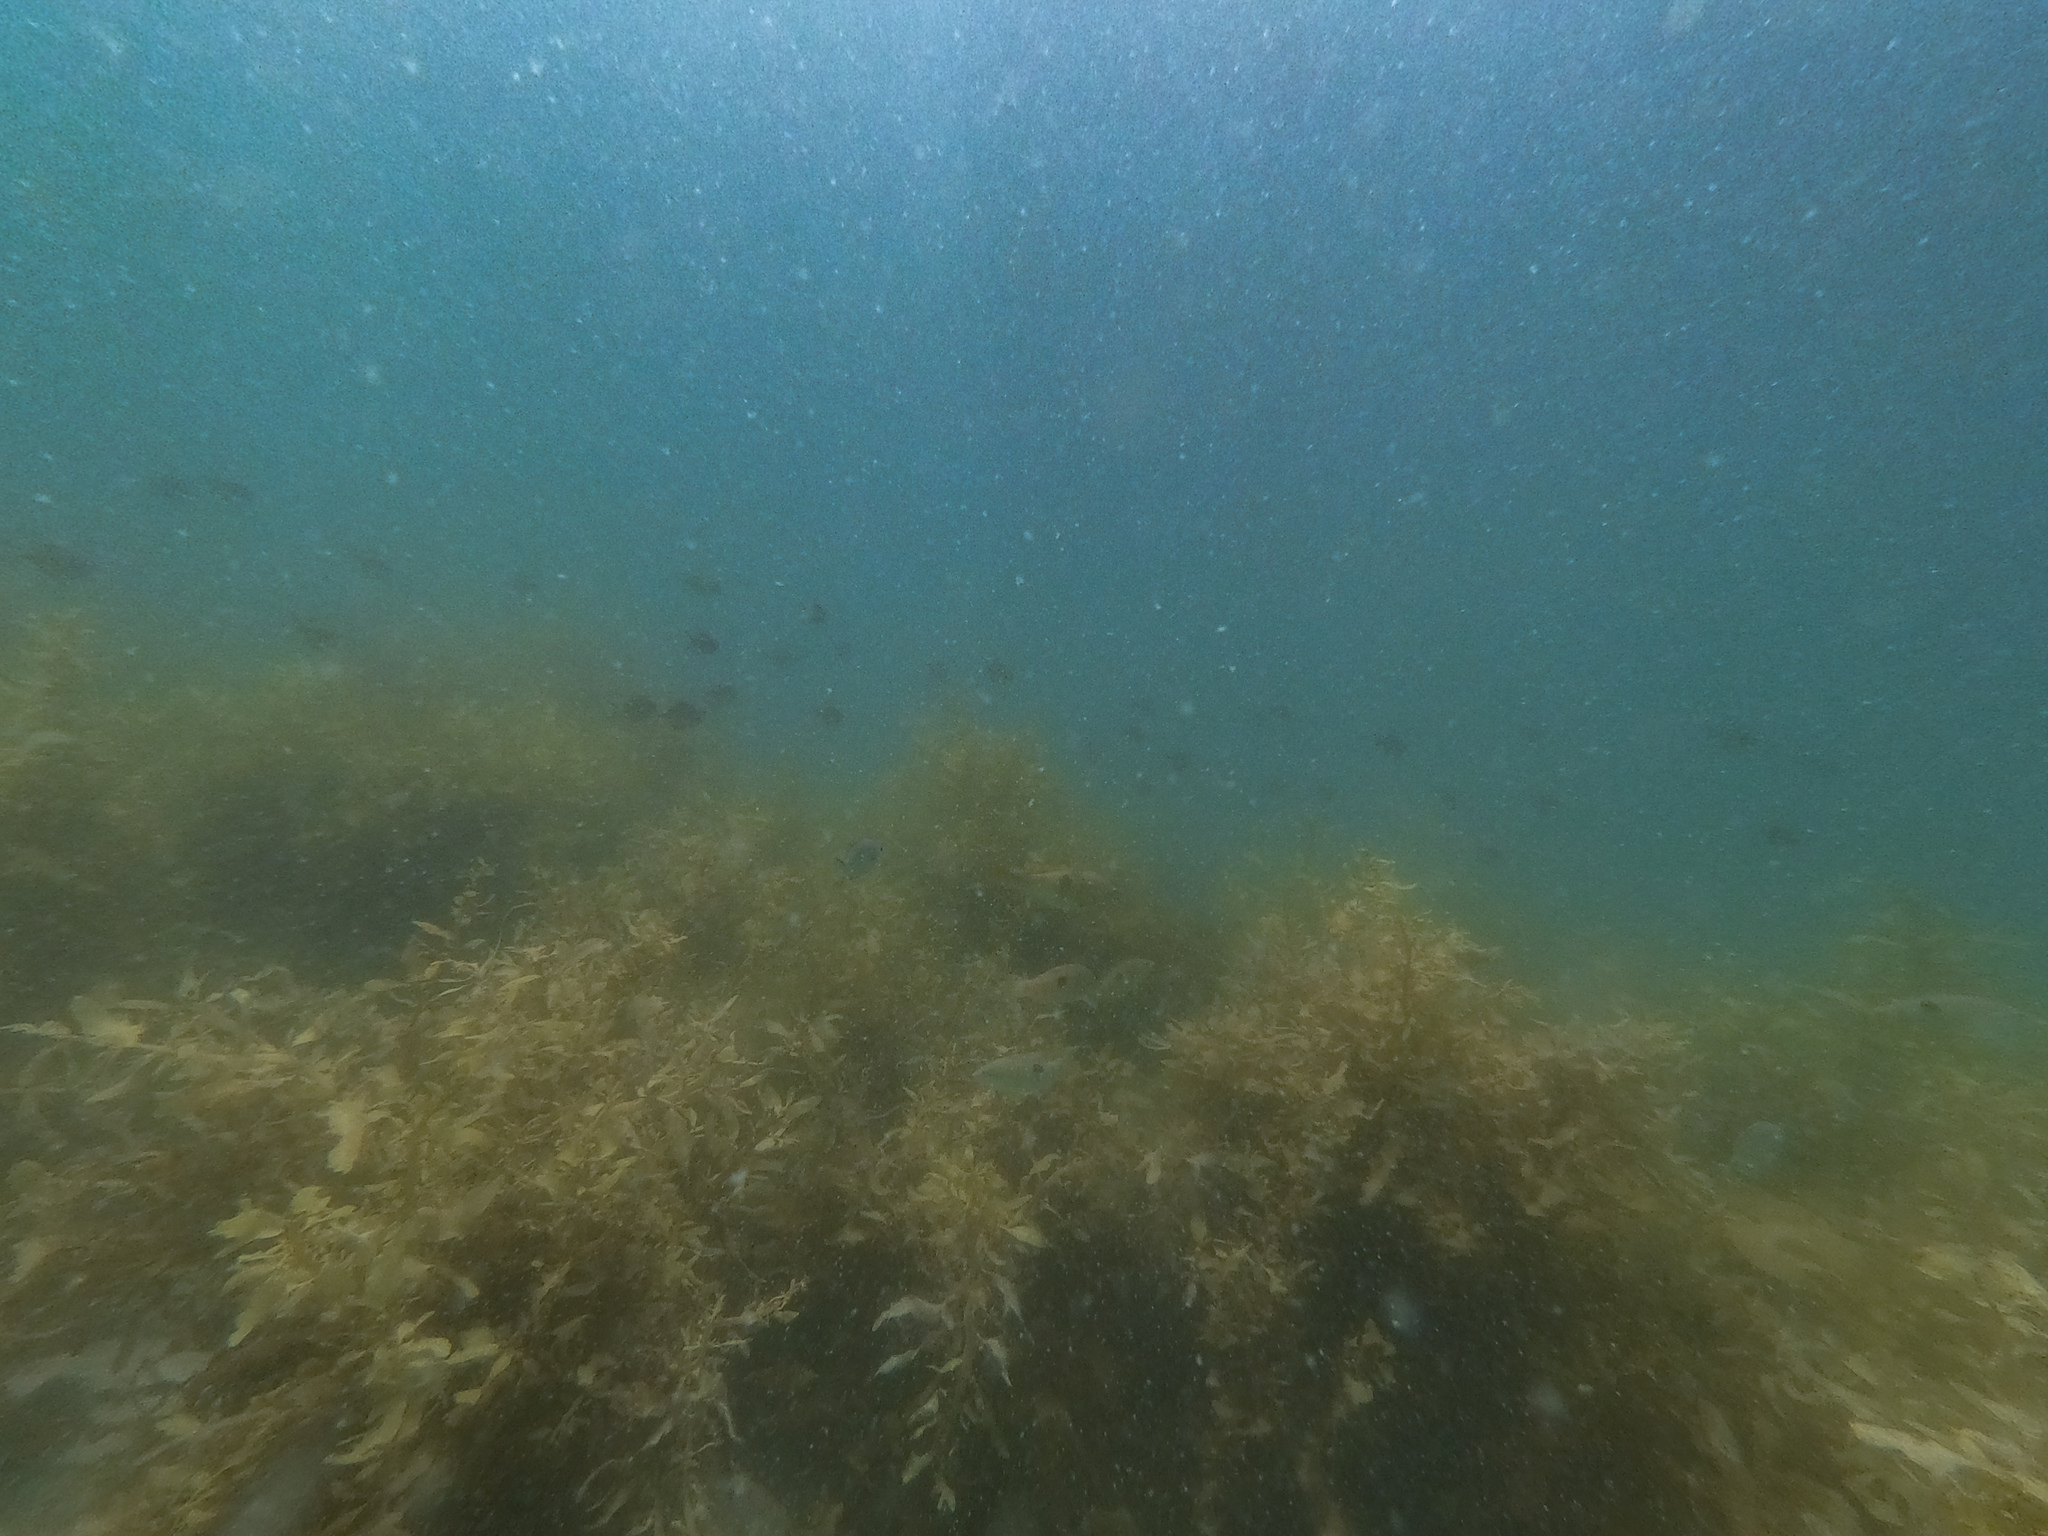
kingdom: Animalia
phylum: Chordata
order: Perciformes
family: Kyphosidae
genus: Scorpis
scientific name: Scorpis lineolata
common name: Sweep
